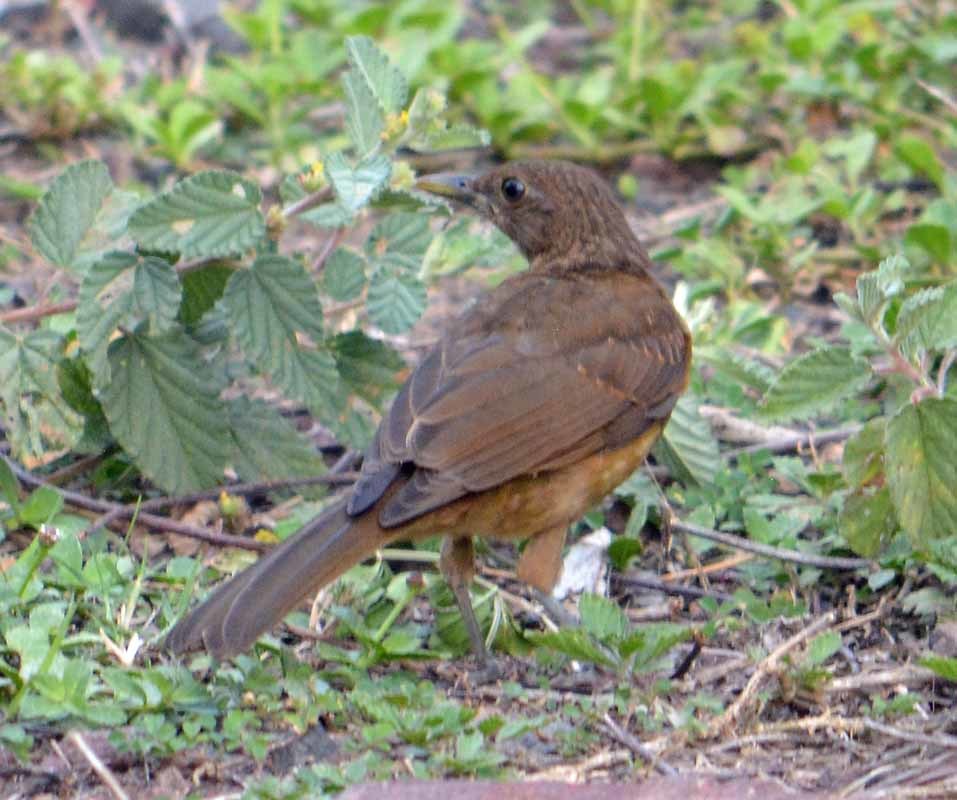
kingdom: Animalia
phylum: Chordata
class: Aves
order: Passeriformes
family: Turdidae
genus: Turdus
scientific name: Turdus grayi
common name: Clay-colored thrush
